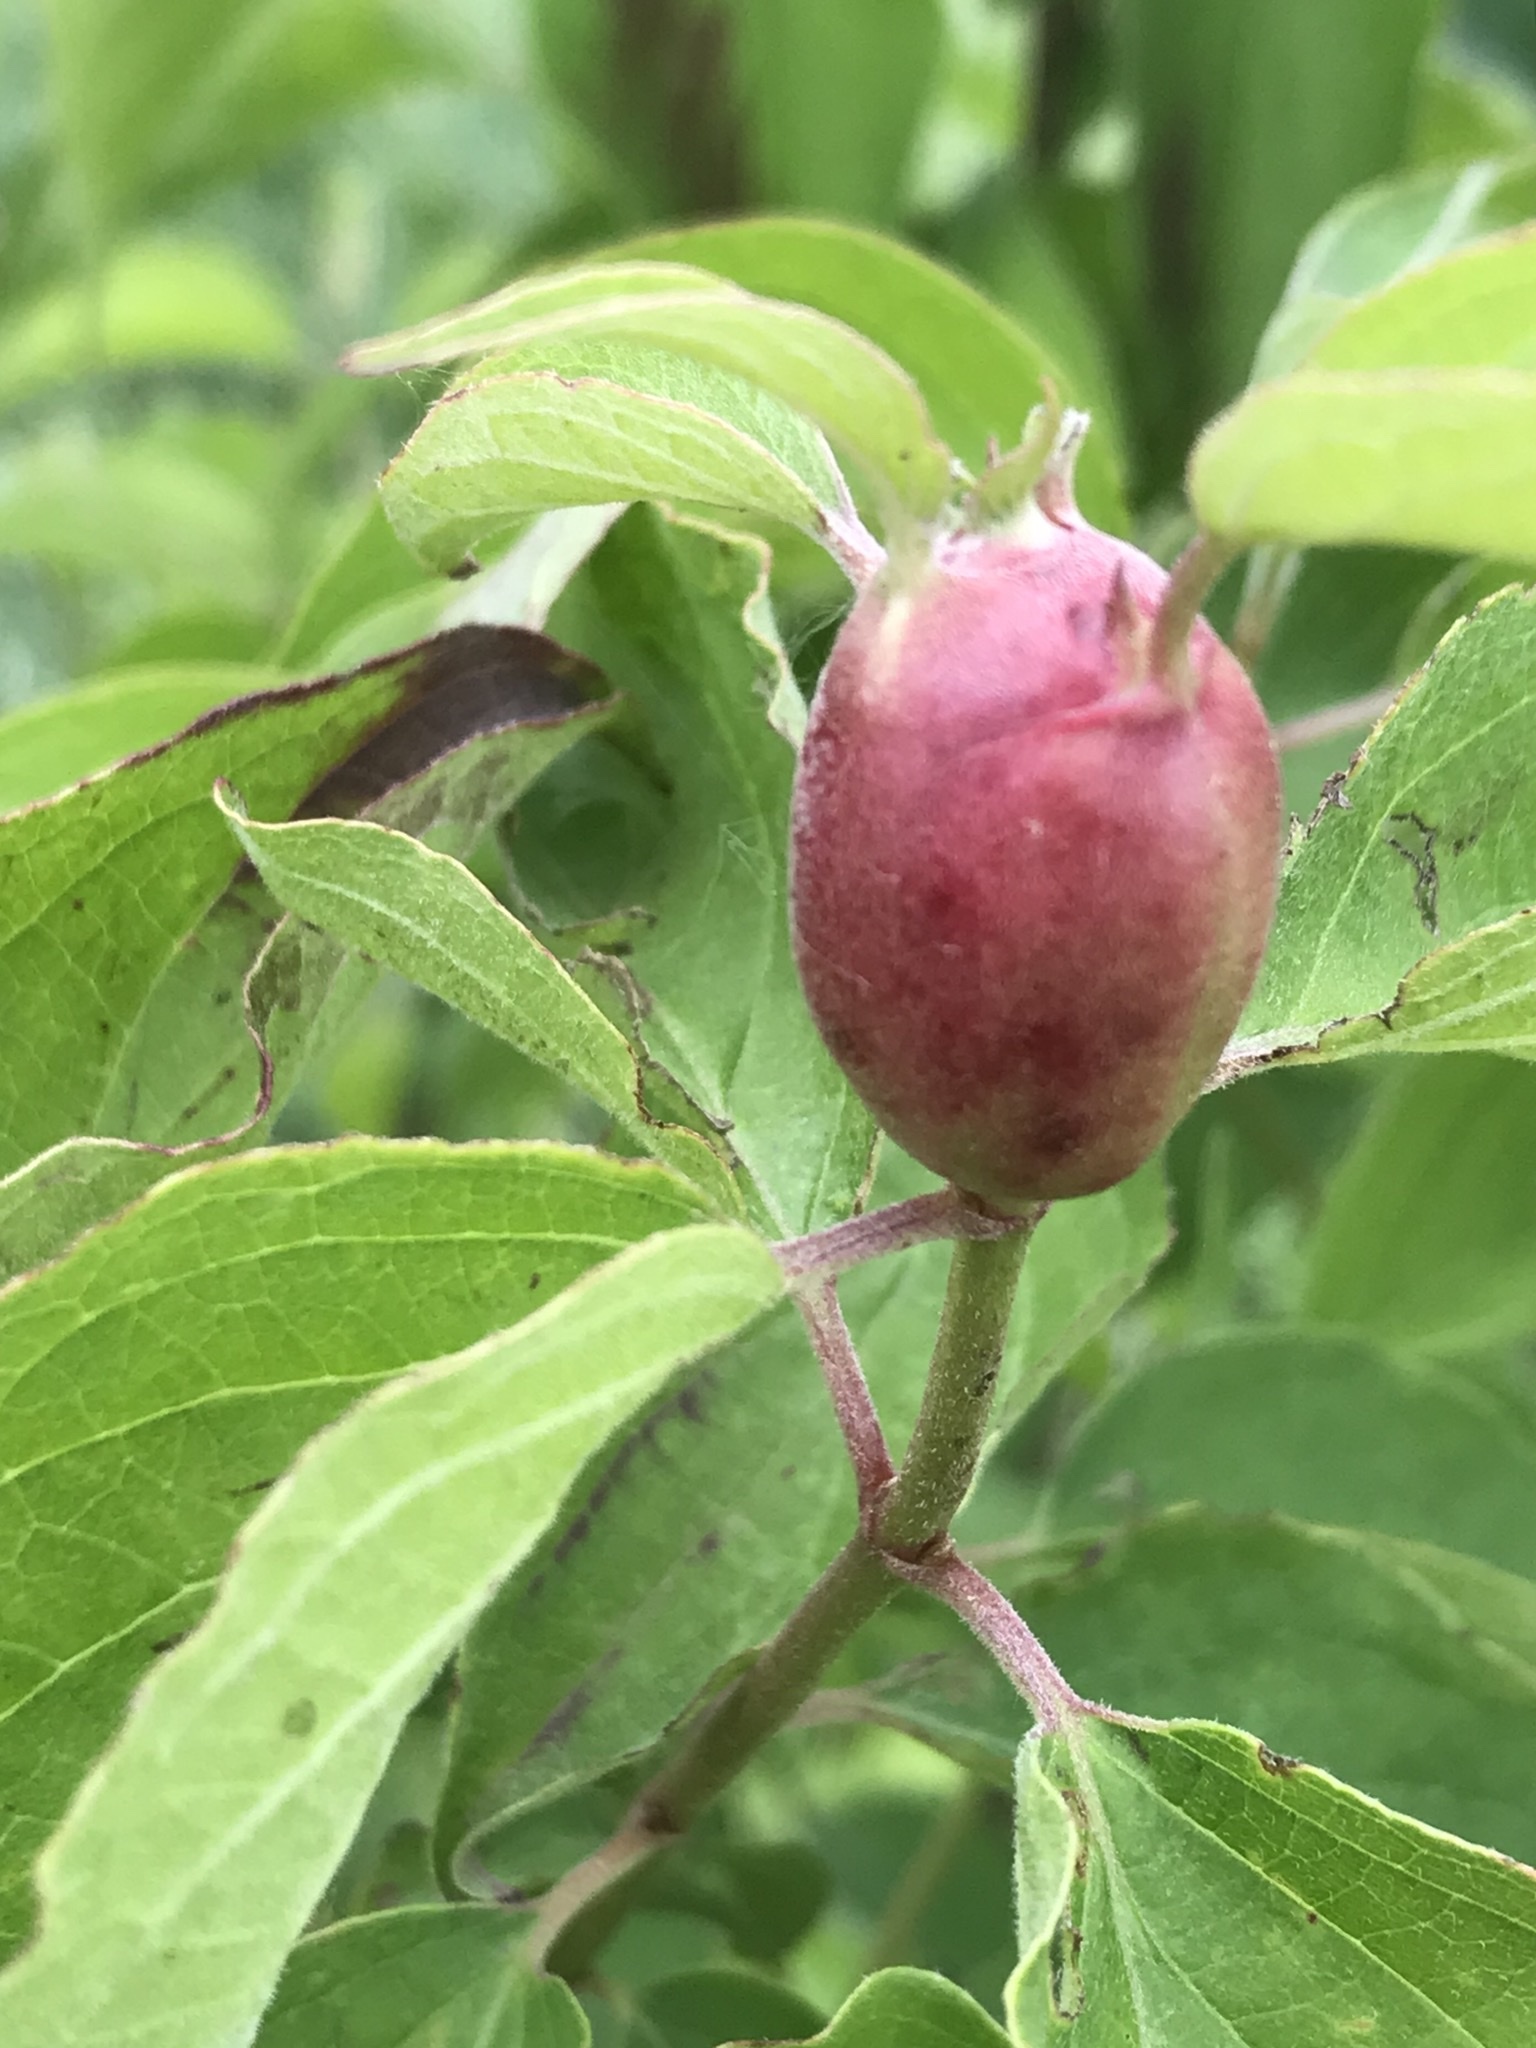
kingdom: Animalia
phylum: Arthropoda
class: Insecta
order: Diptera
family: Cecidomyiidae
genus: Resseliella
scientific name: Resseliella clavula
